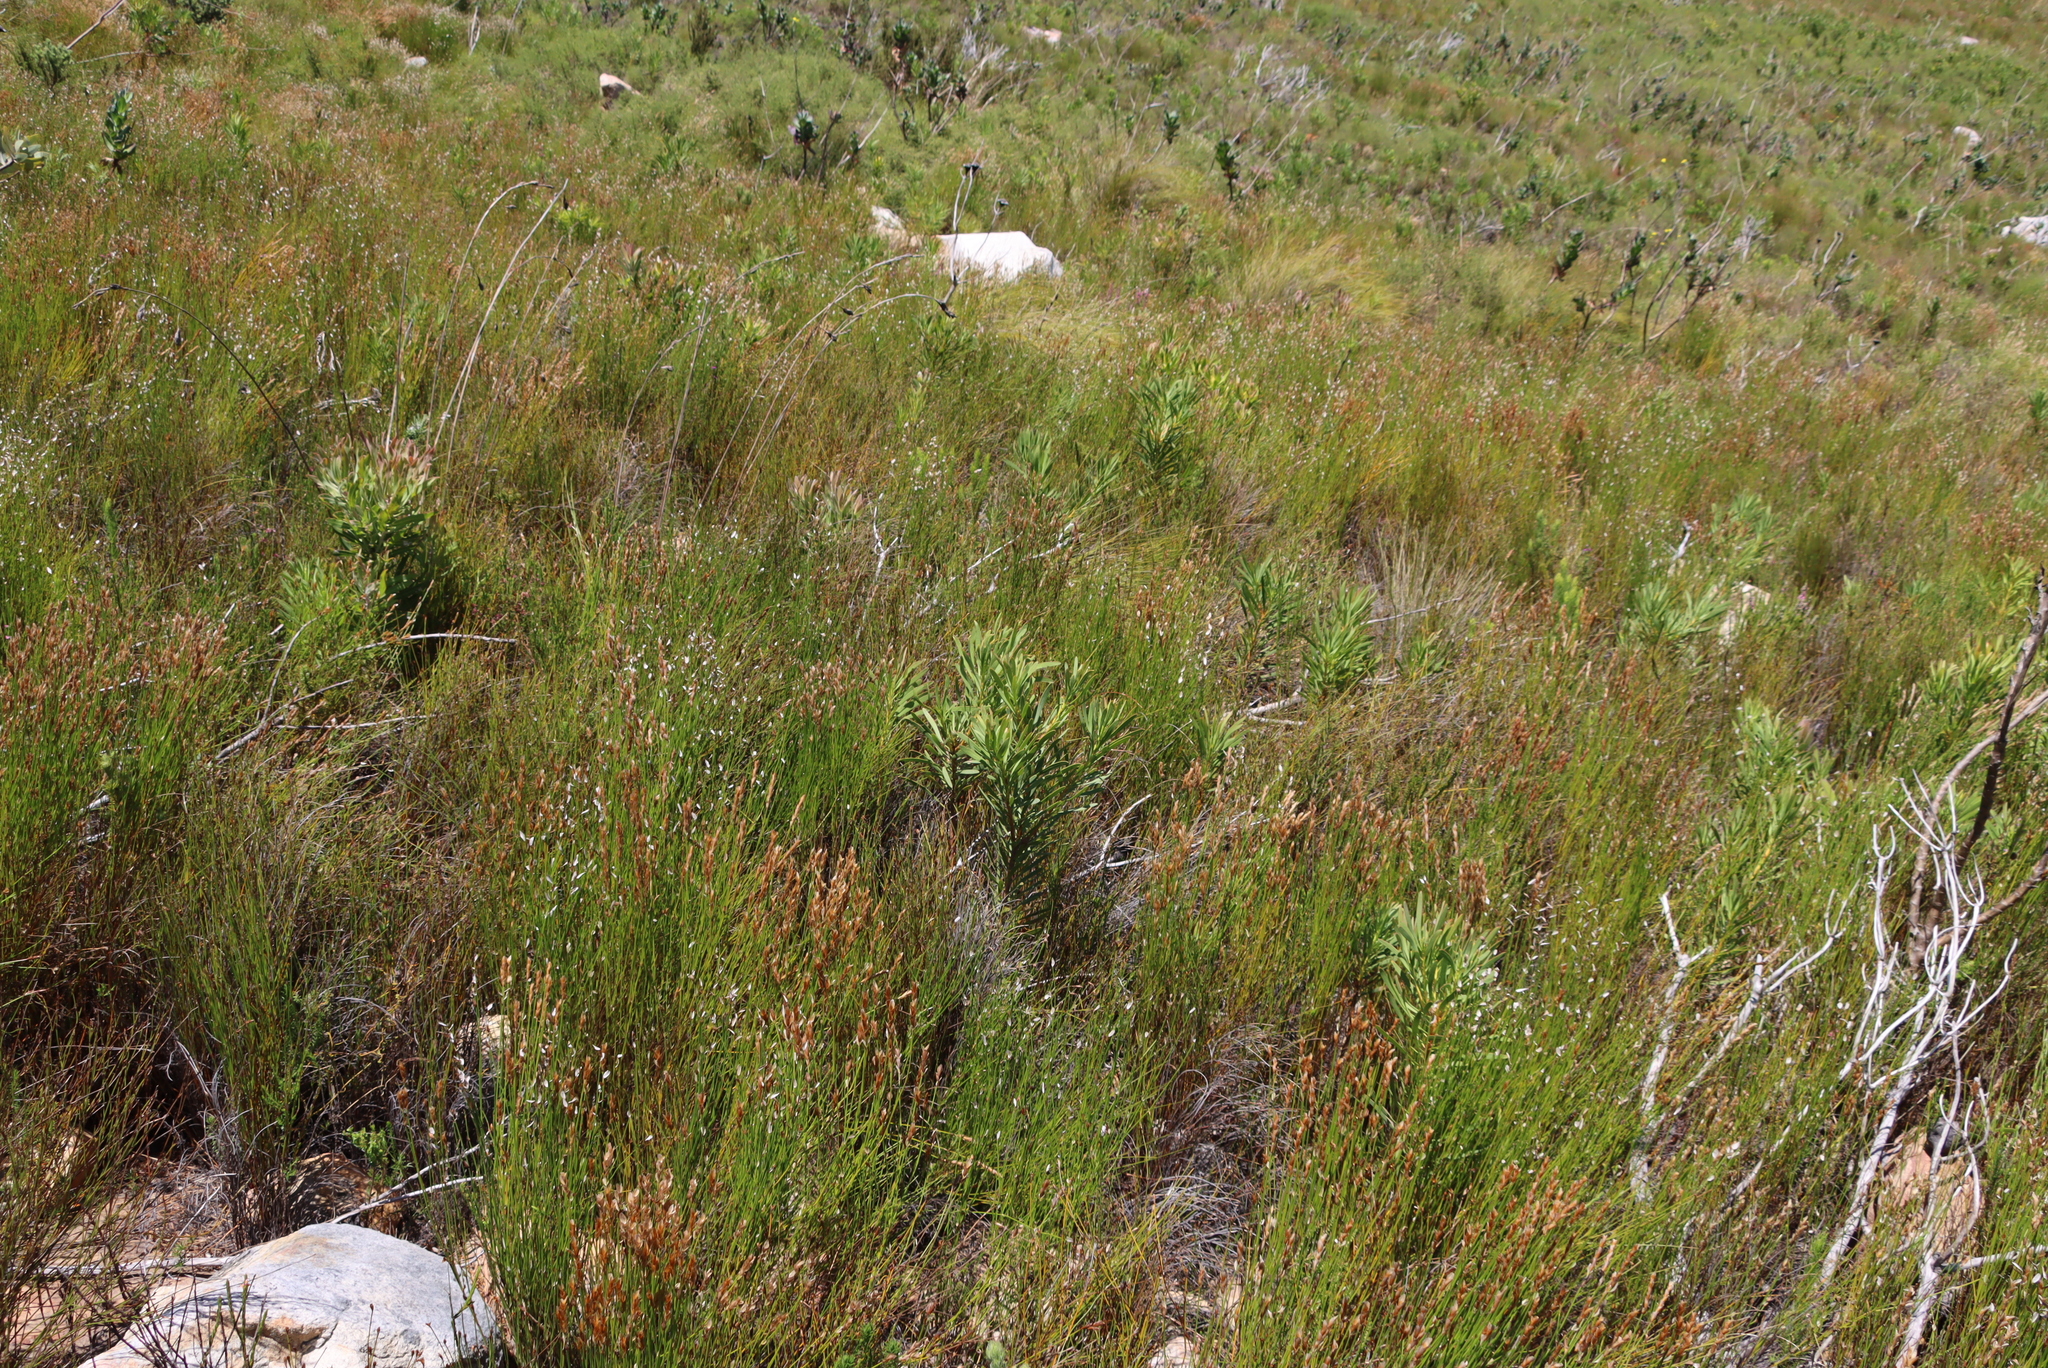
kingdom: Plantae
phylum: Tracheophyta
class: Magnoliopsida
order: Proteales
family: Proteaceae
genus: Protea
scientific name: Protea repens
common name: Sugarbush
